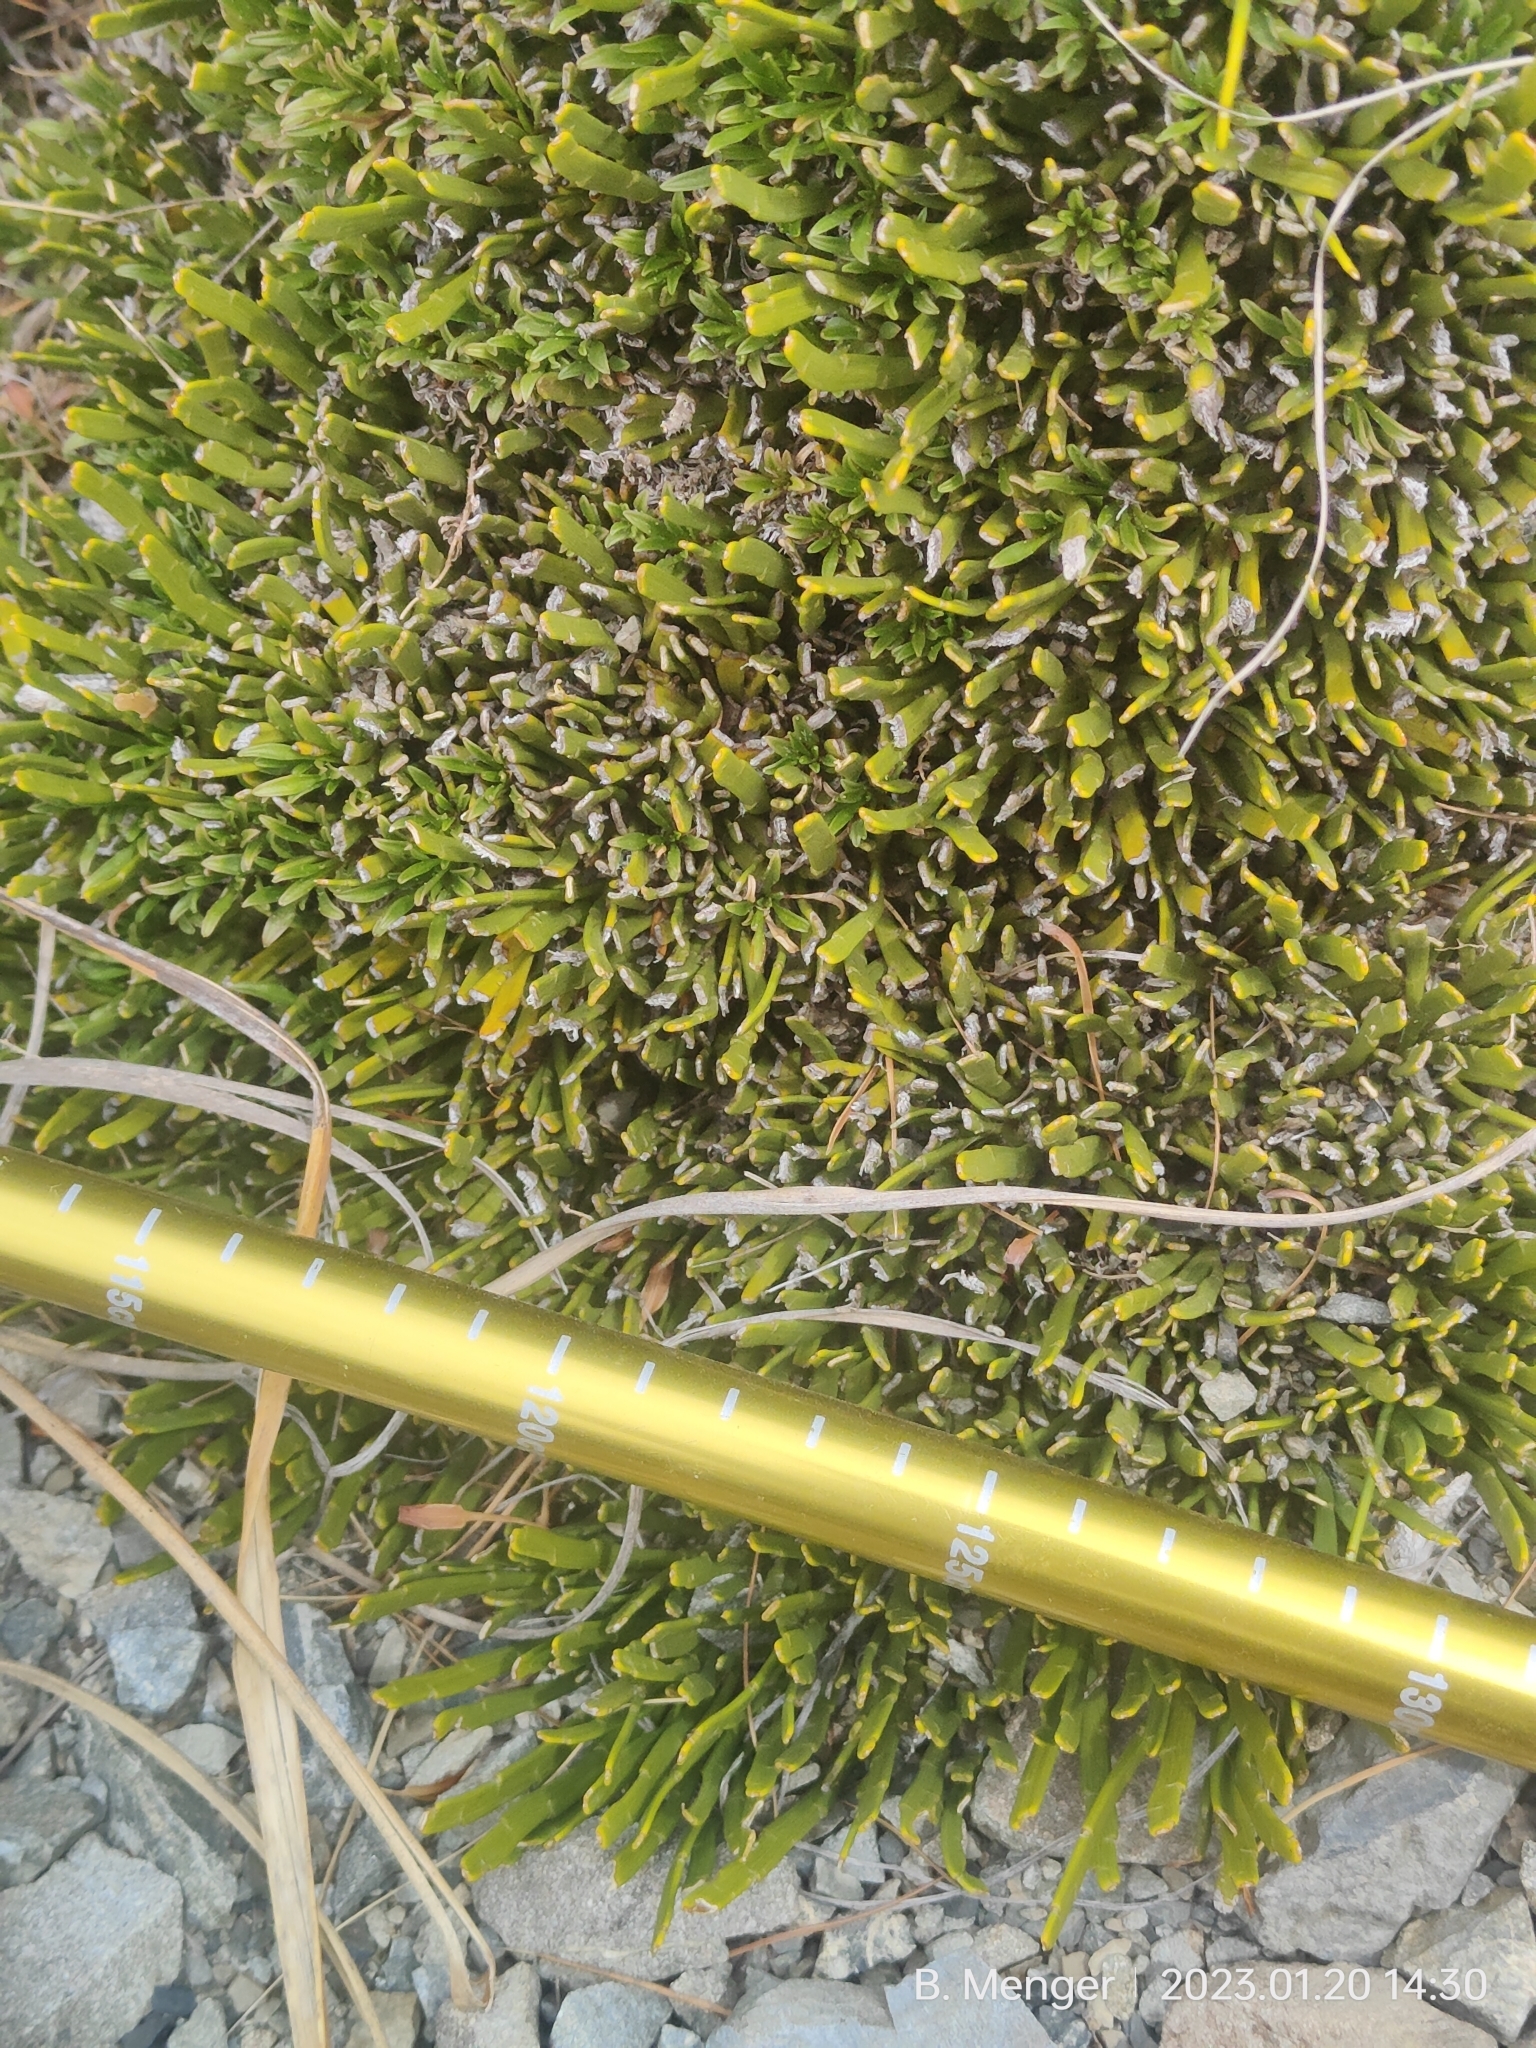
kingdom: Plantae
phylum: Tracheophyta
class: Magnoliopsida
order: Fabales
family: Fabaceae
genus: Carmichaelia
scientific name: Carmichaelia monroi
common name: Stout dwarf broom
